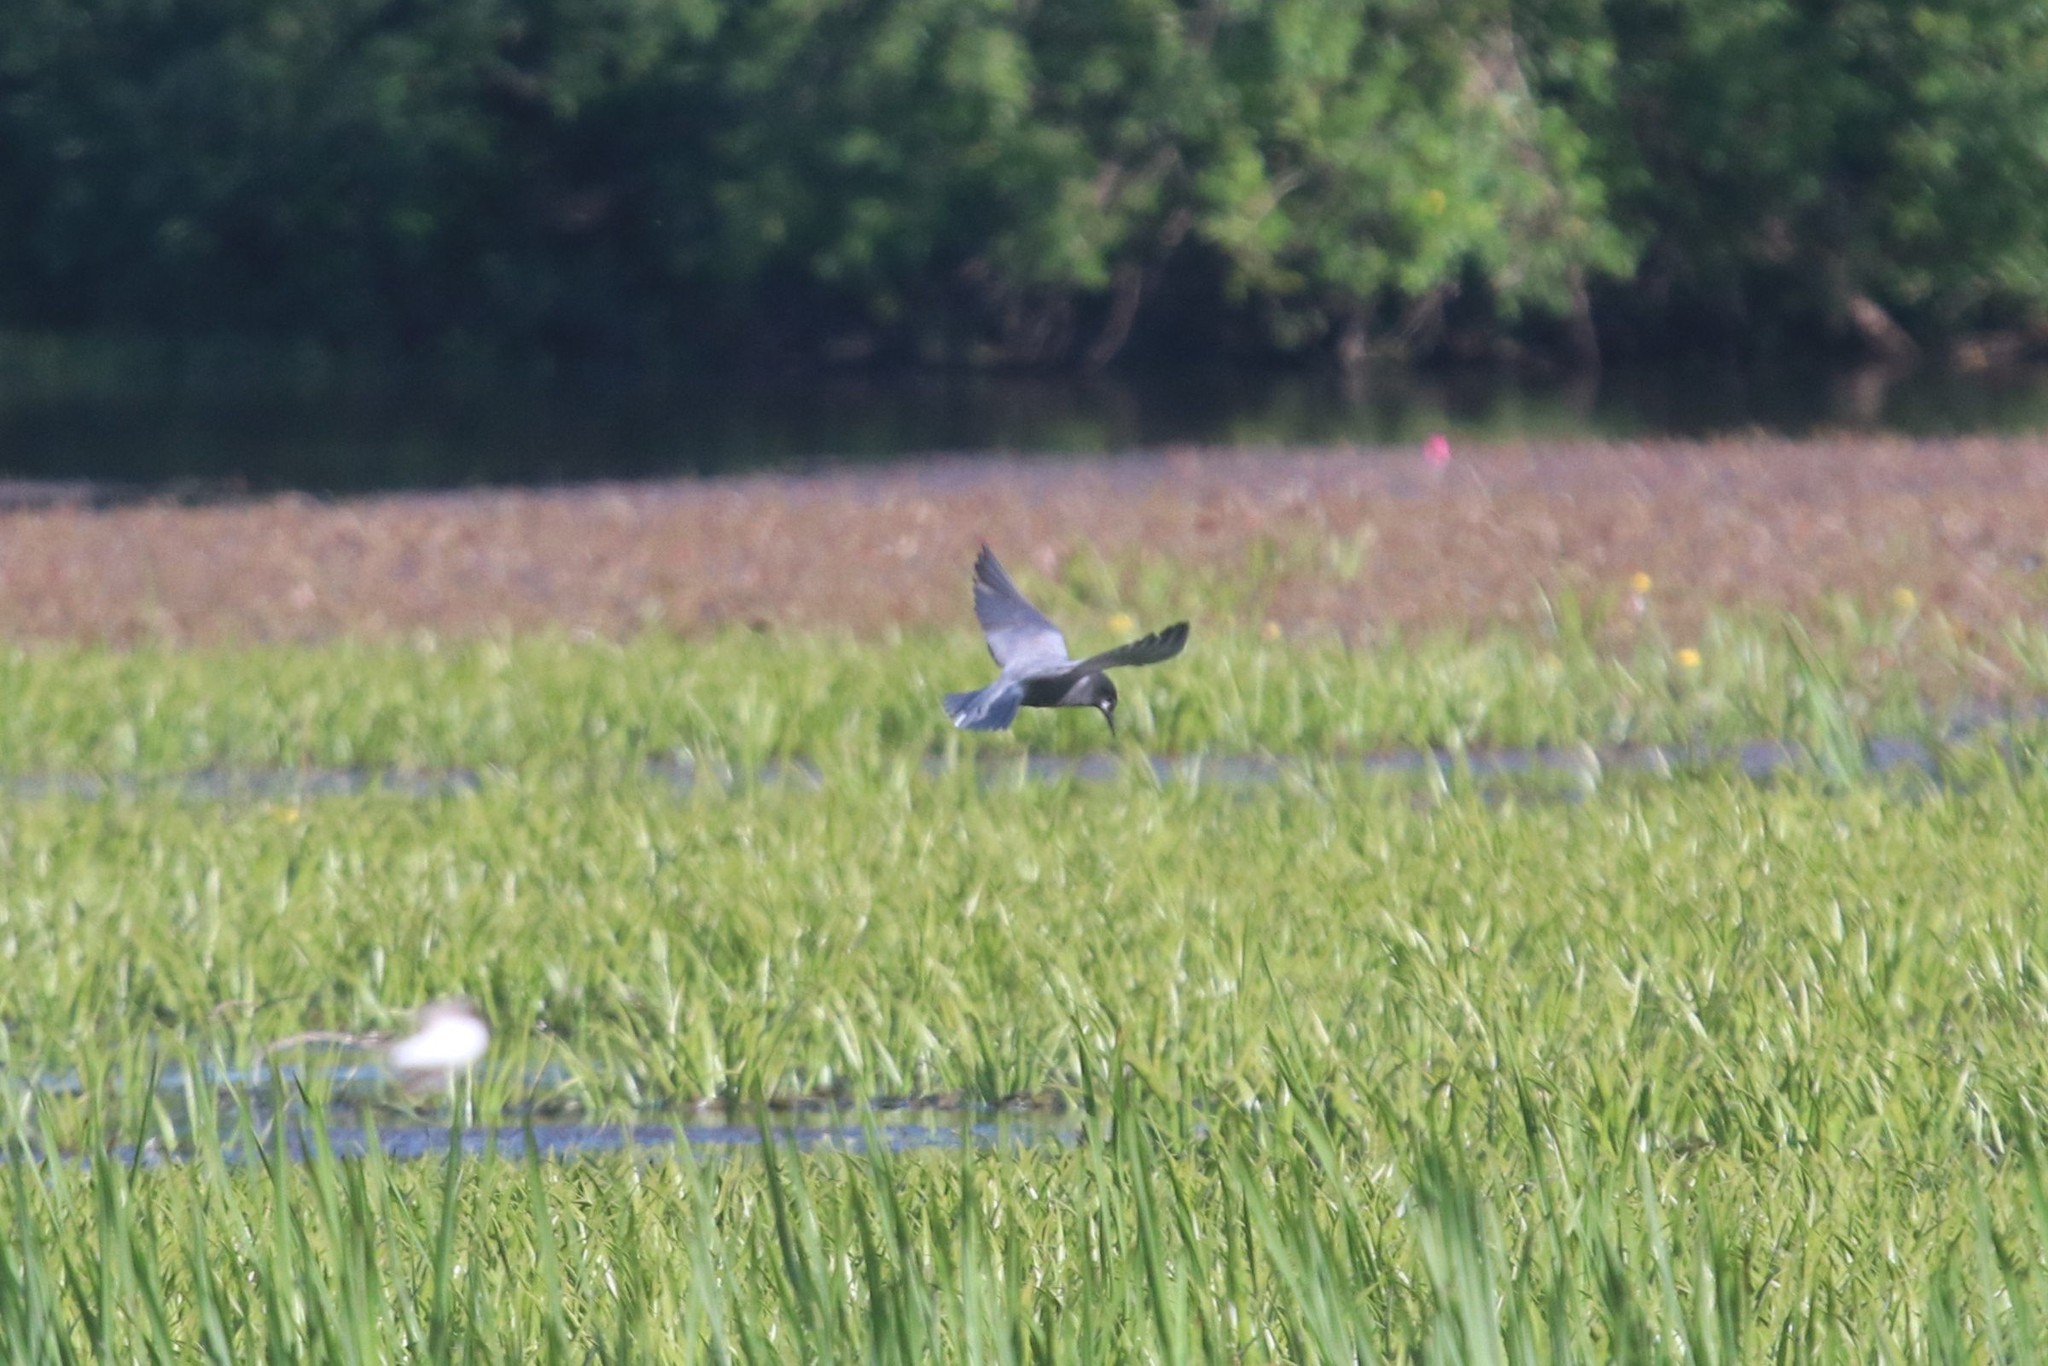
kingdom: Animalia
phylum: Chordata
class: Aves
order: Charadriiformes
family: Laridae
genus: Chlidonias
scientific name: Chlidonias niger
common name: Black tern
